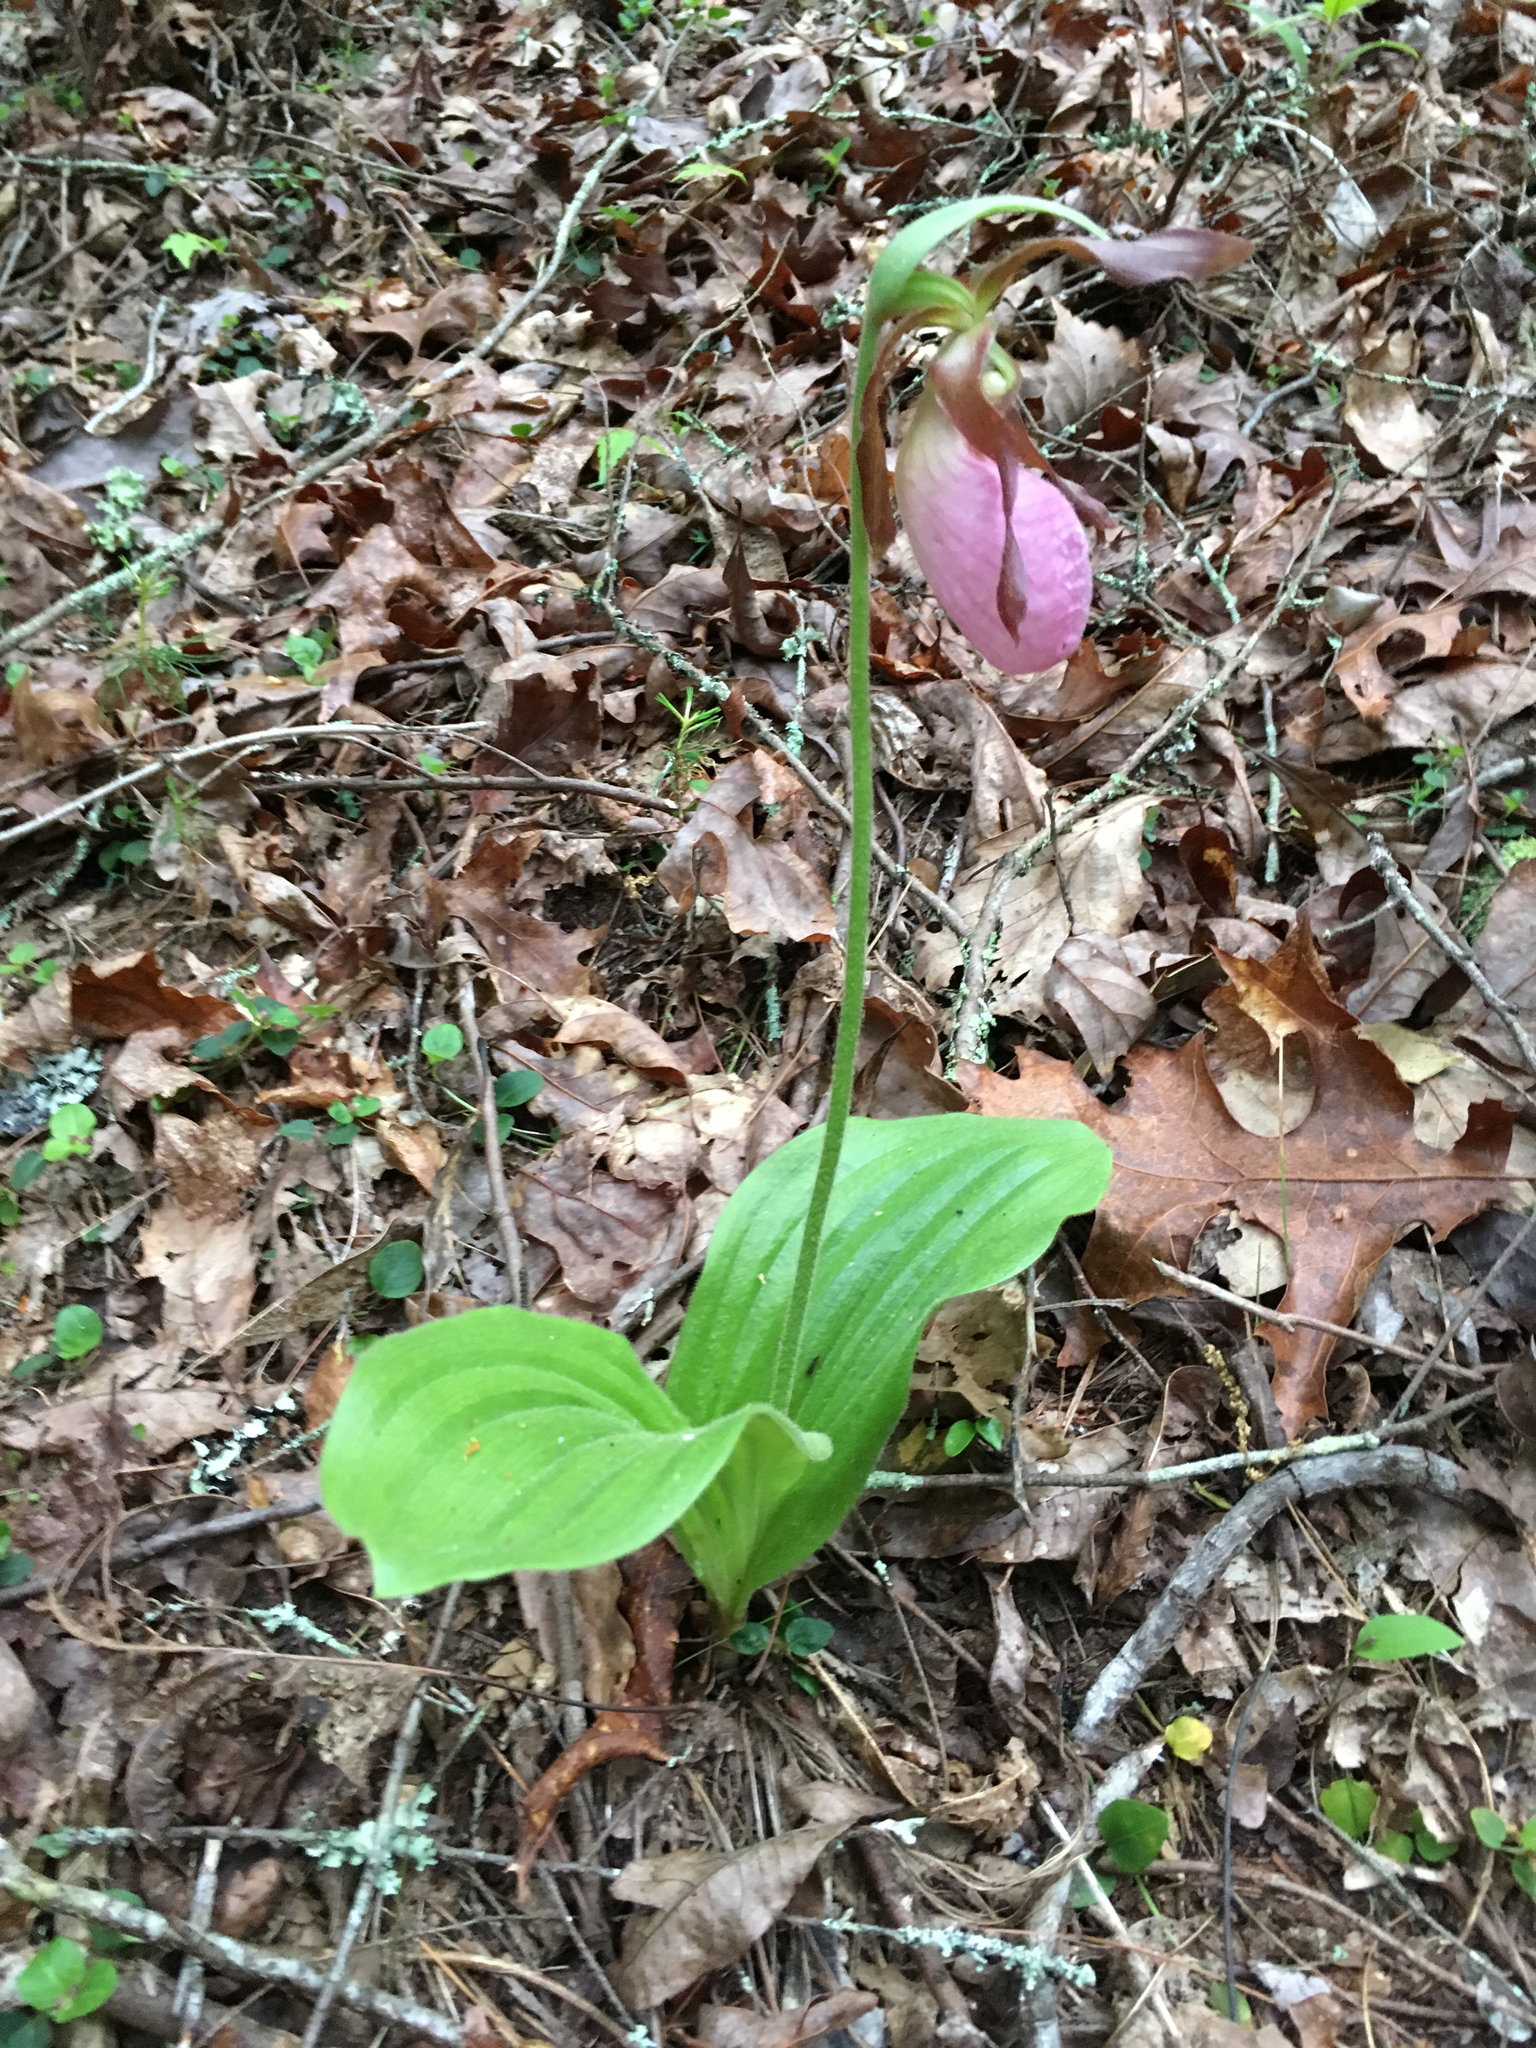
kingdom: Plantae
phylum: Tracheophyta
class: Liliopsida
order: Asparagales
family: Orchidaceae
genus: Cypripedium
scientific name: Cypripedium acaule
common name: Pink lady's-slipper
